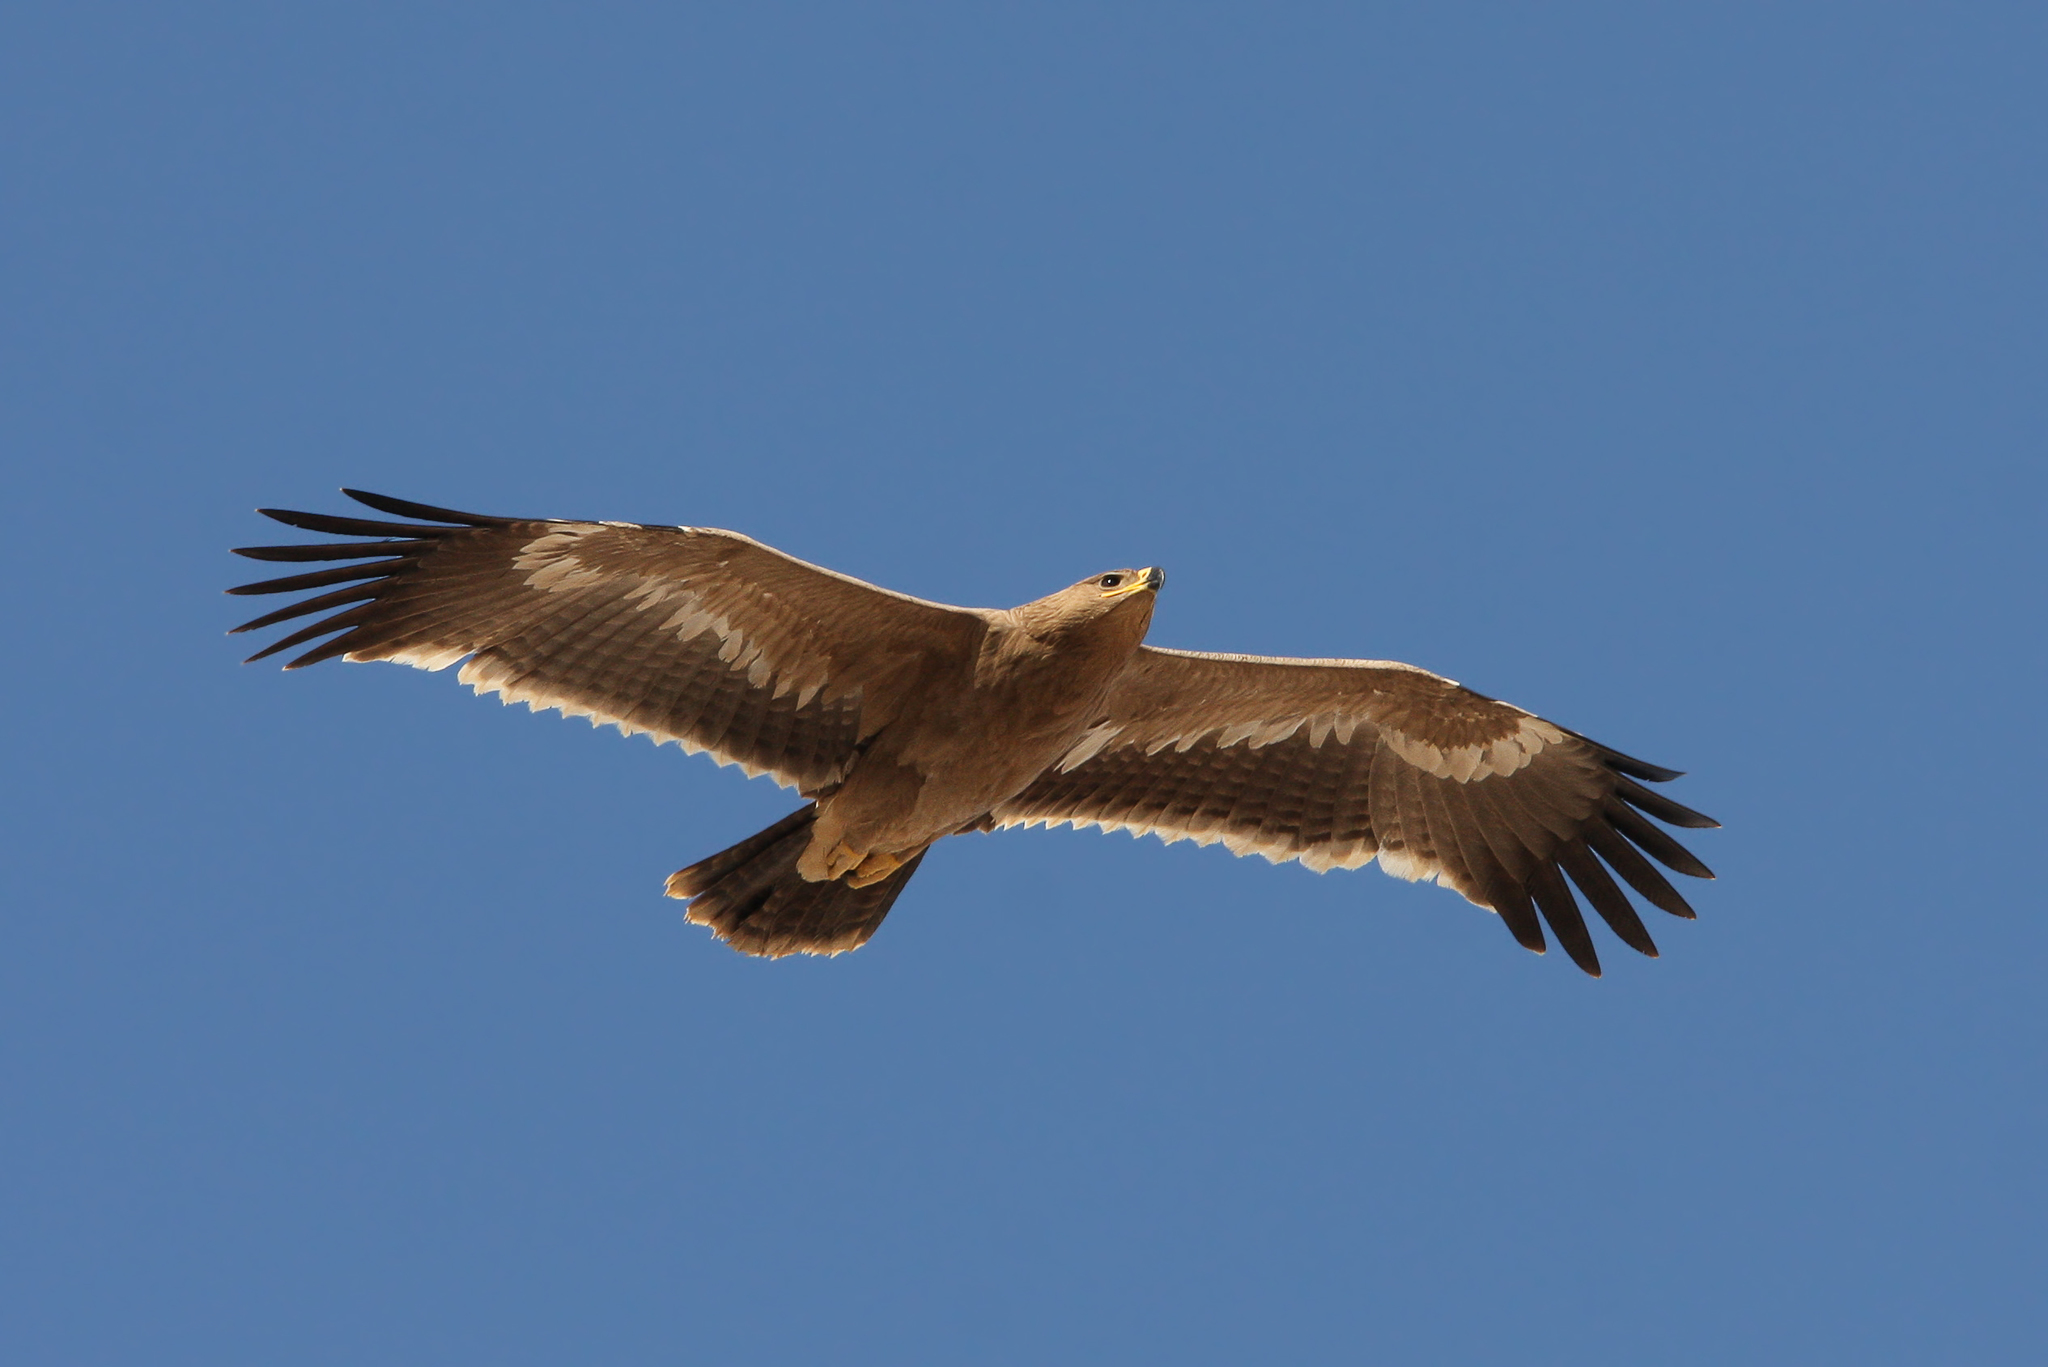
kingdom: Animalia
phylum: Chordata
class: Aves
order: Accipitriformes
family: Accipitridae
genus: Aquila
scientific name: Aquila nipalensis
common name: Steppe eagle
